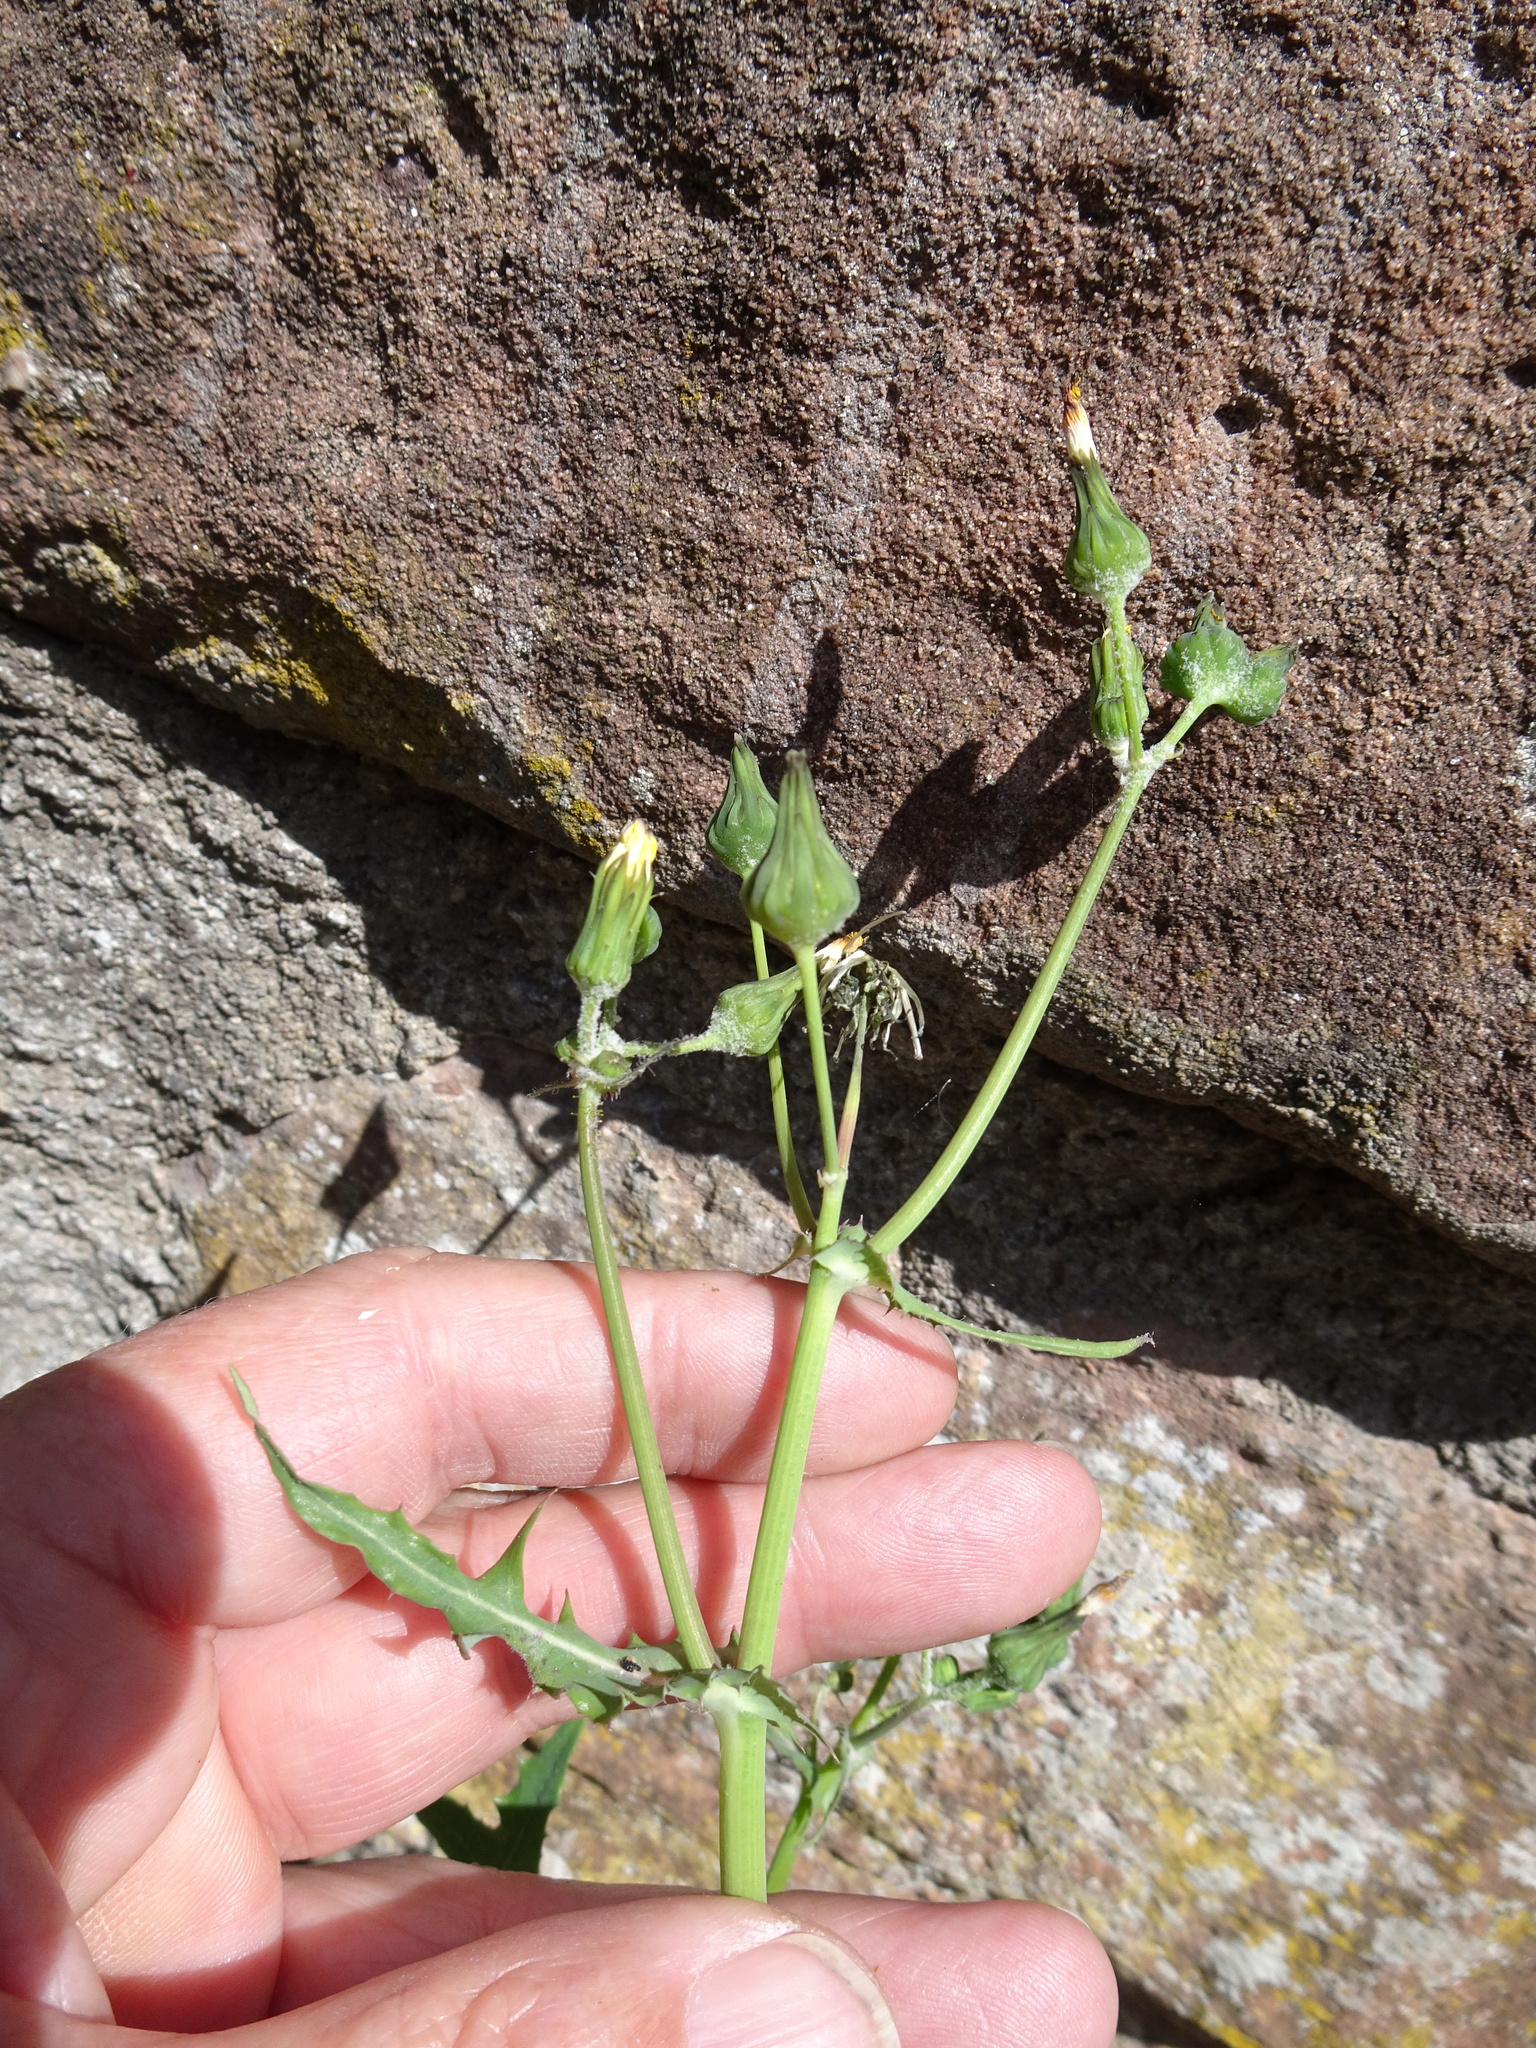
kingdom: Plantae
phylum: Tracheophyta
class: Magnoliopsida
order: Asterales
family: Asteraceae
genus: Sonchus
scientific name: Sonchus oleraceus
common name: Common sowthistle
